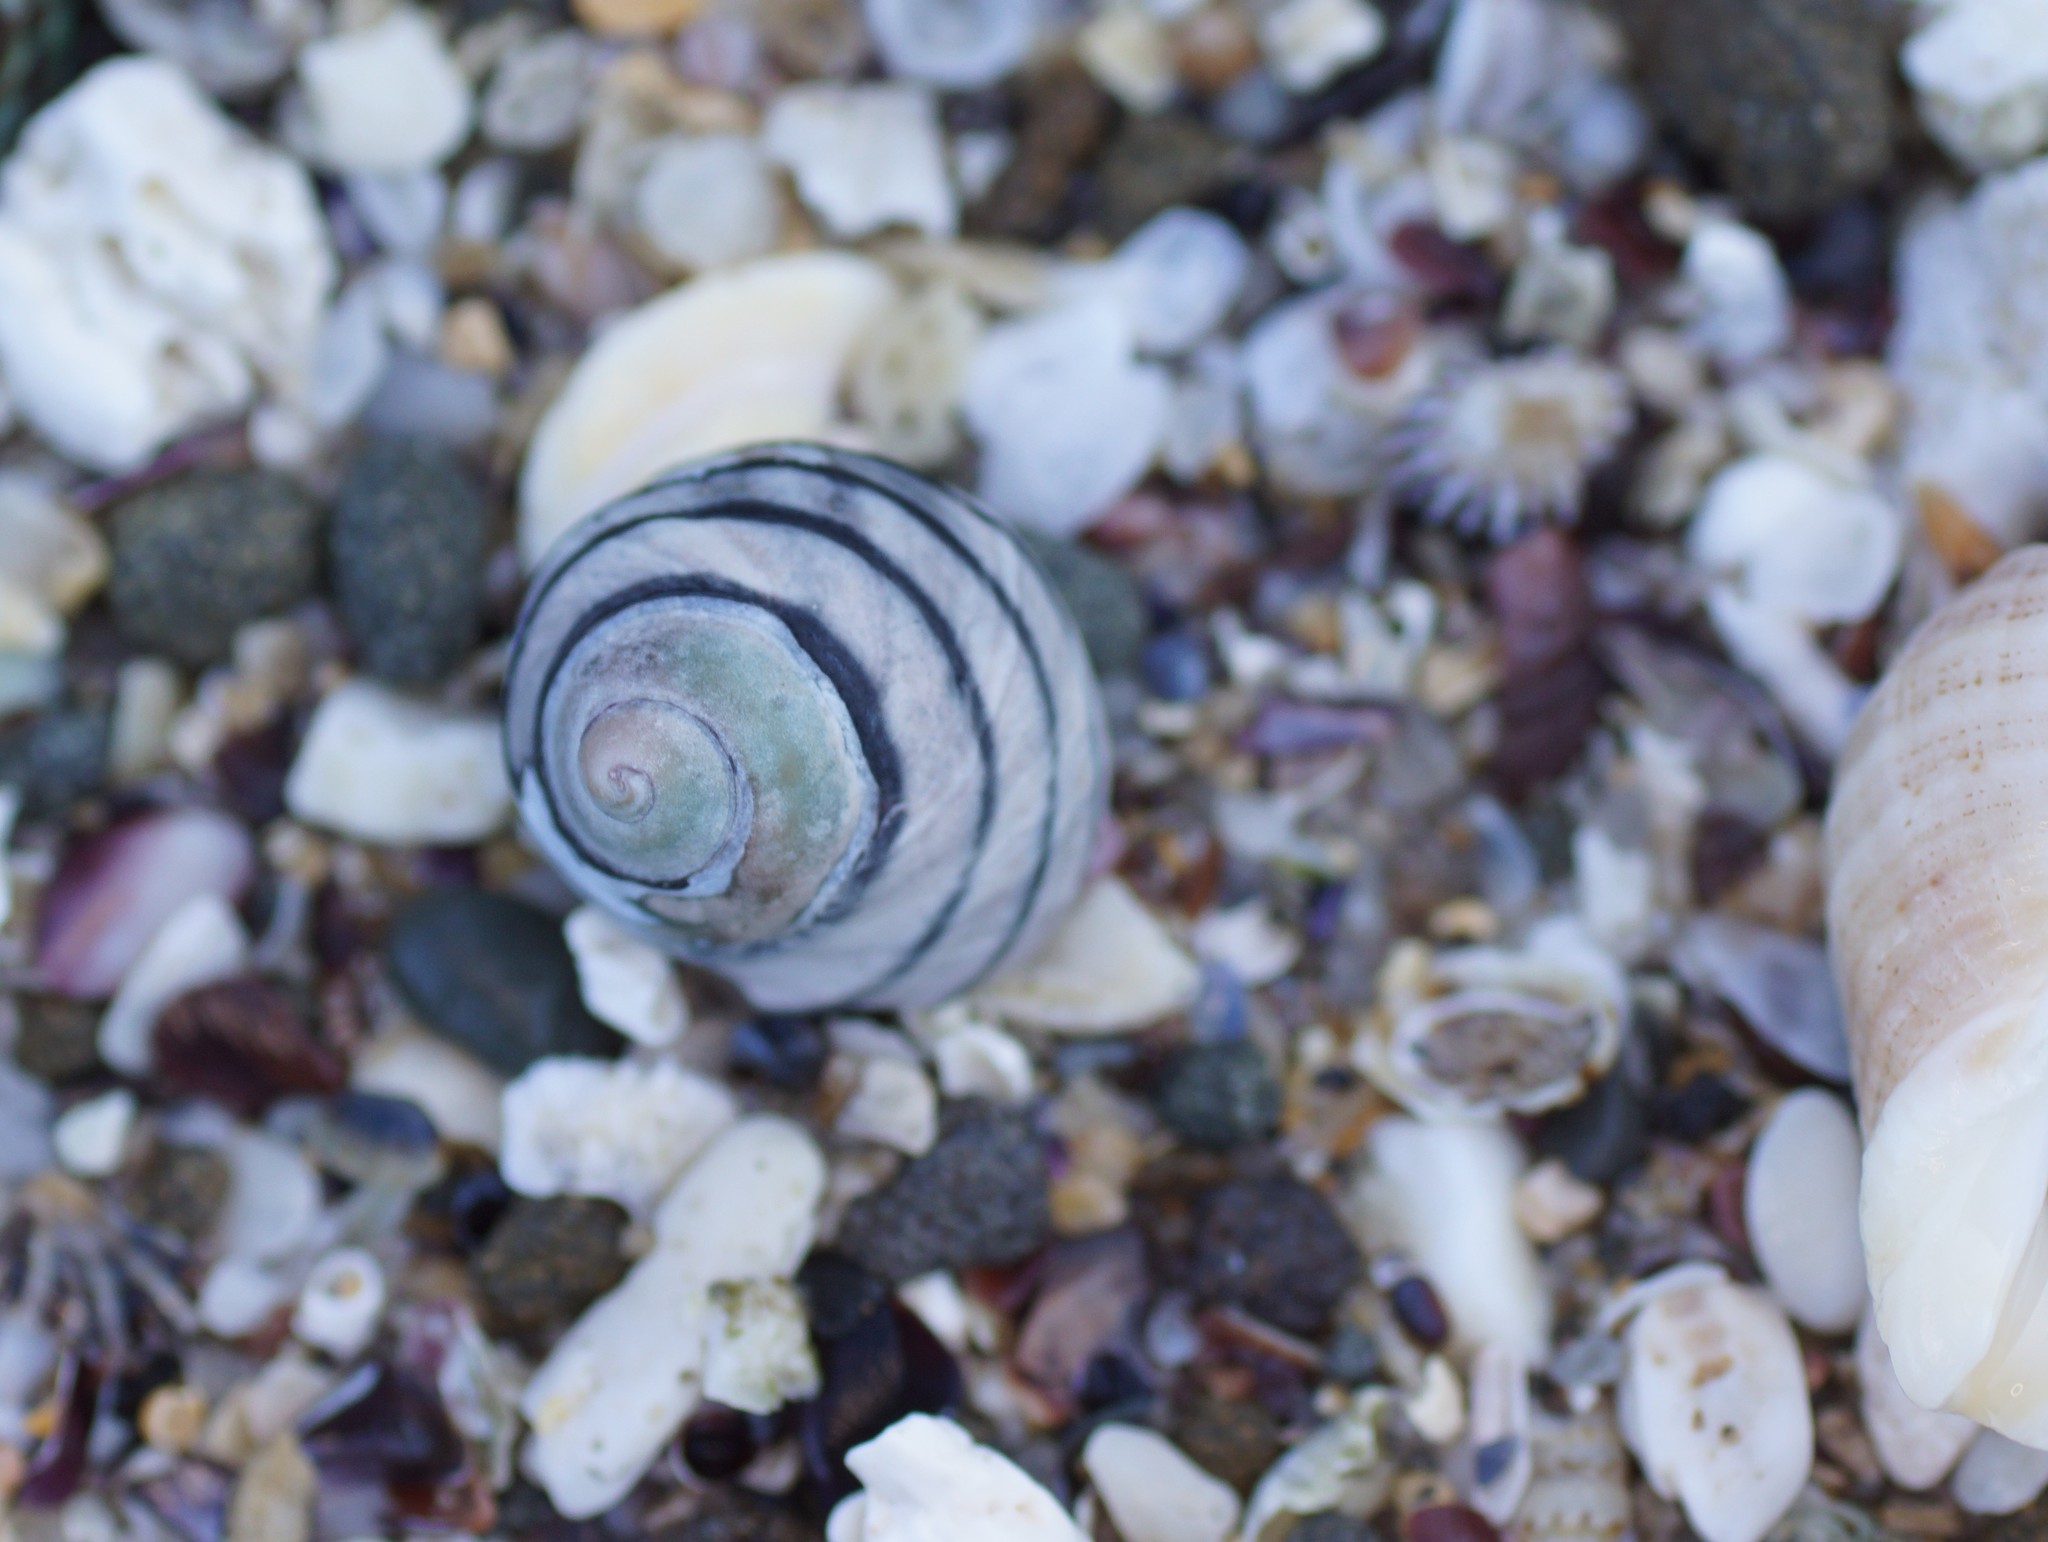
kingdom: Animalia
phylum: Mollusca
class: Gastropoda
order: Trochida
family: Trochidae
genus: Austrocochlea
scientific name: Austrocochlea constricta
